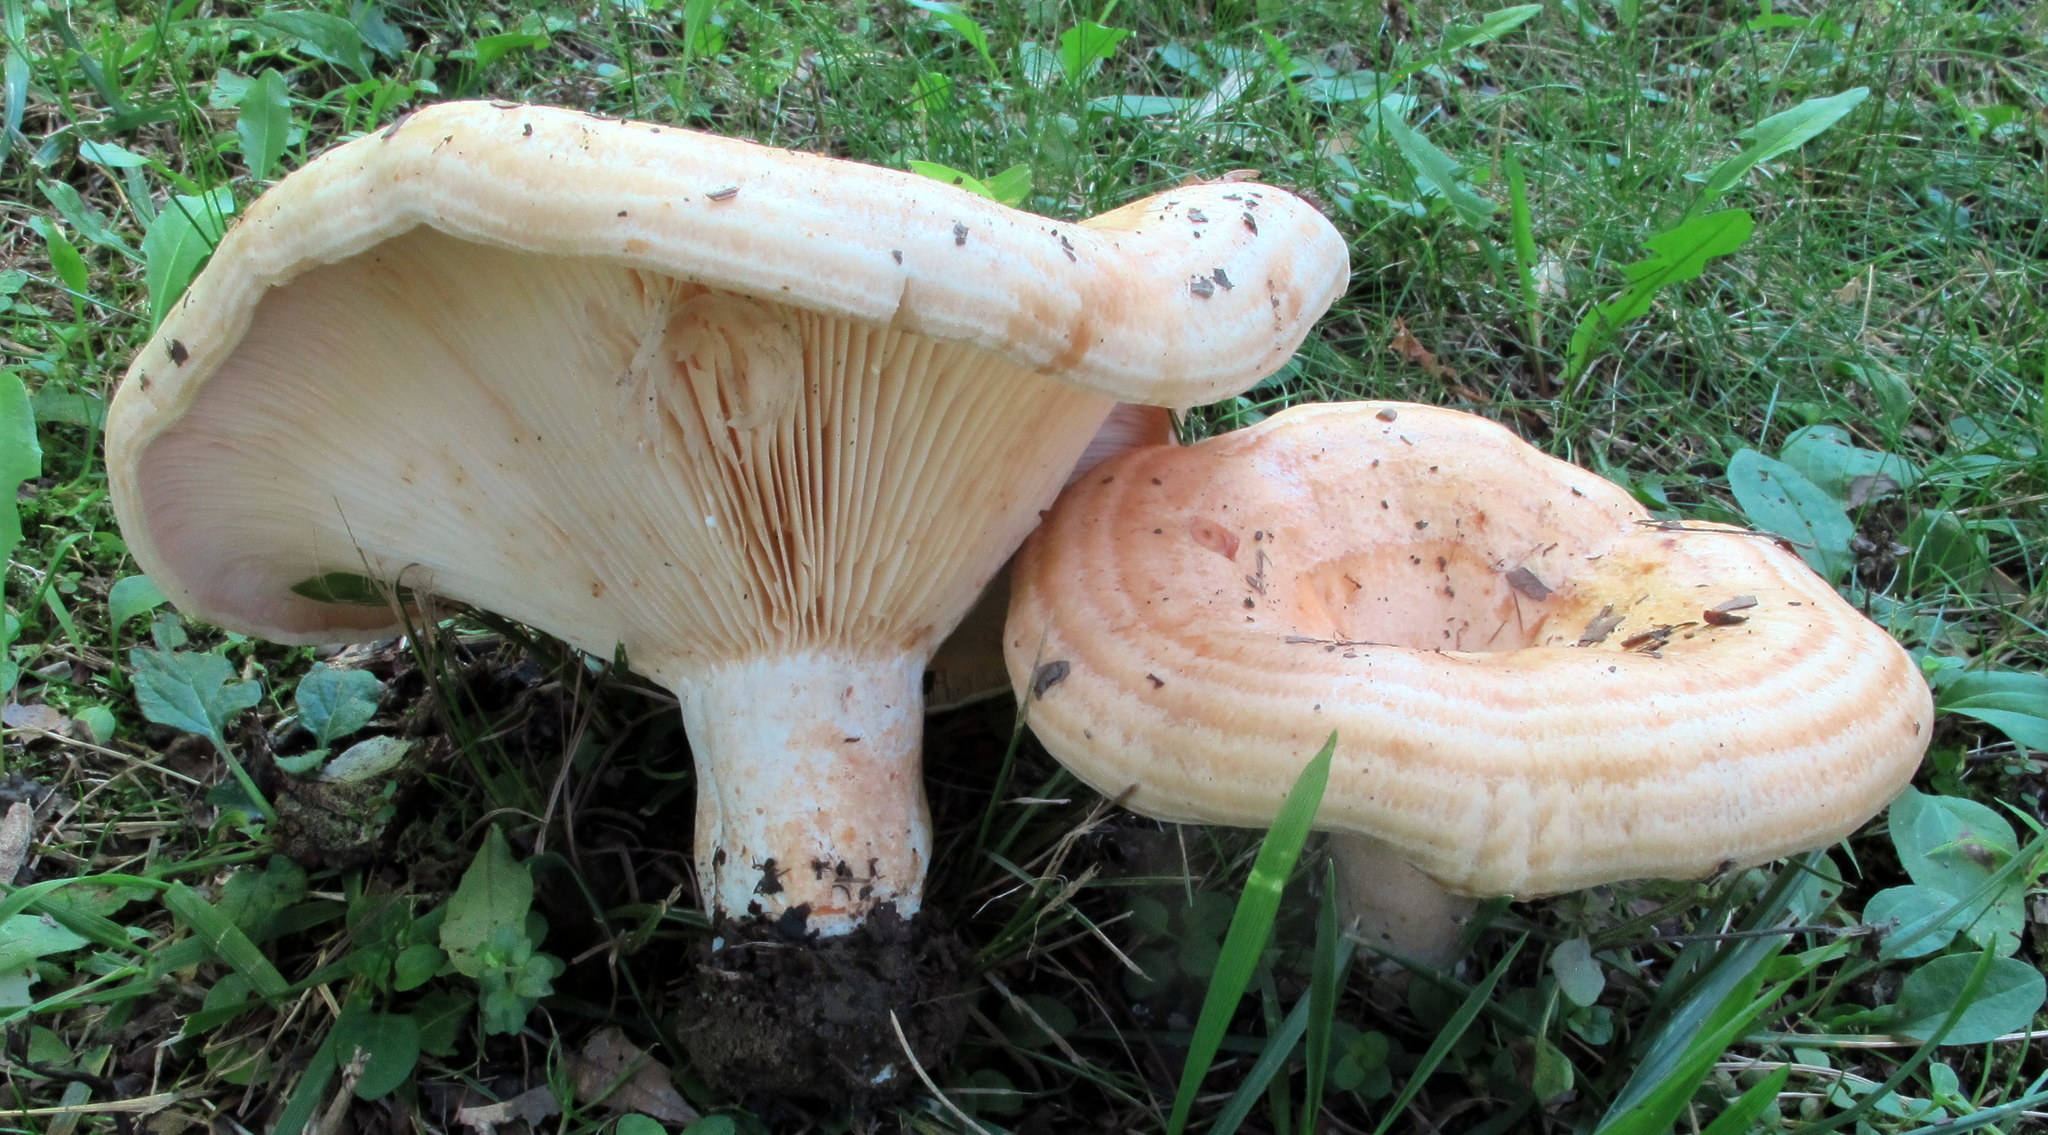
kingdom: Fungi
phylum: Basidiomycota
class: Agaricomycetes
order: Russulales
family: Russulaceae
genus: Lactarius
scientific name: Lactarius psammicola
